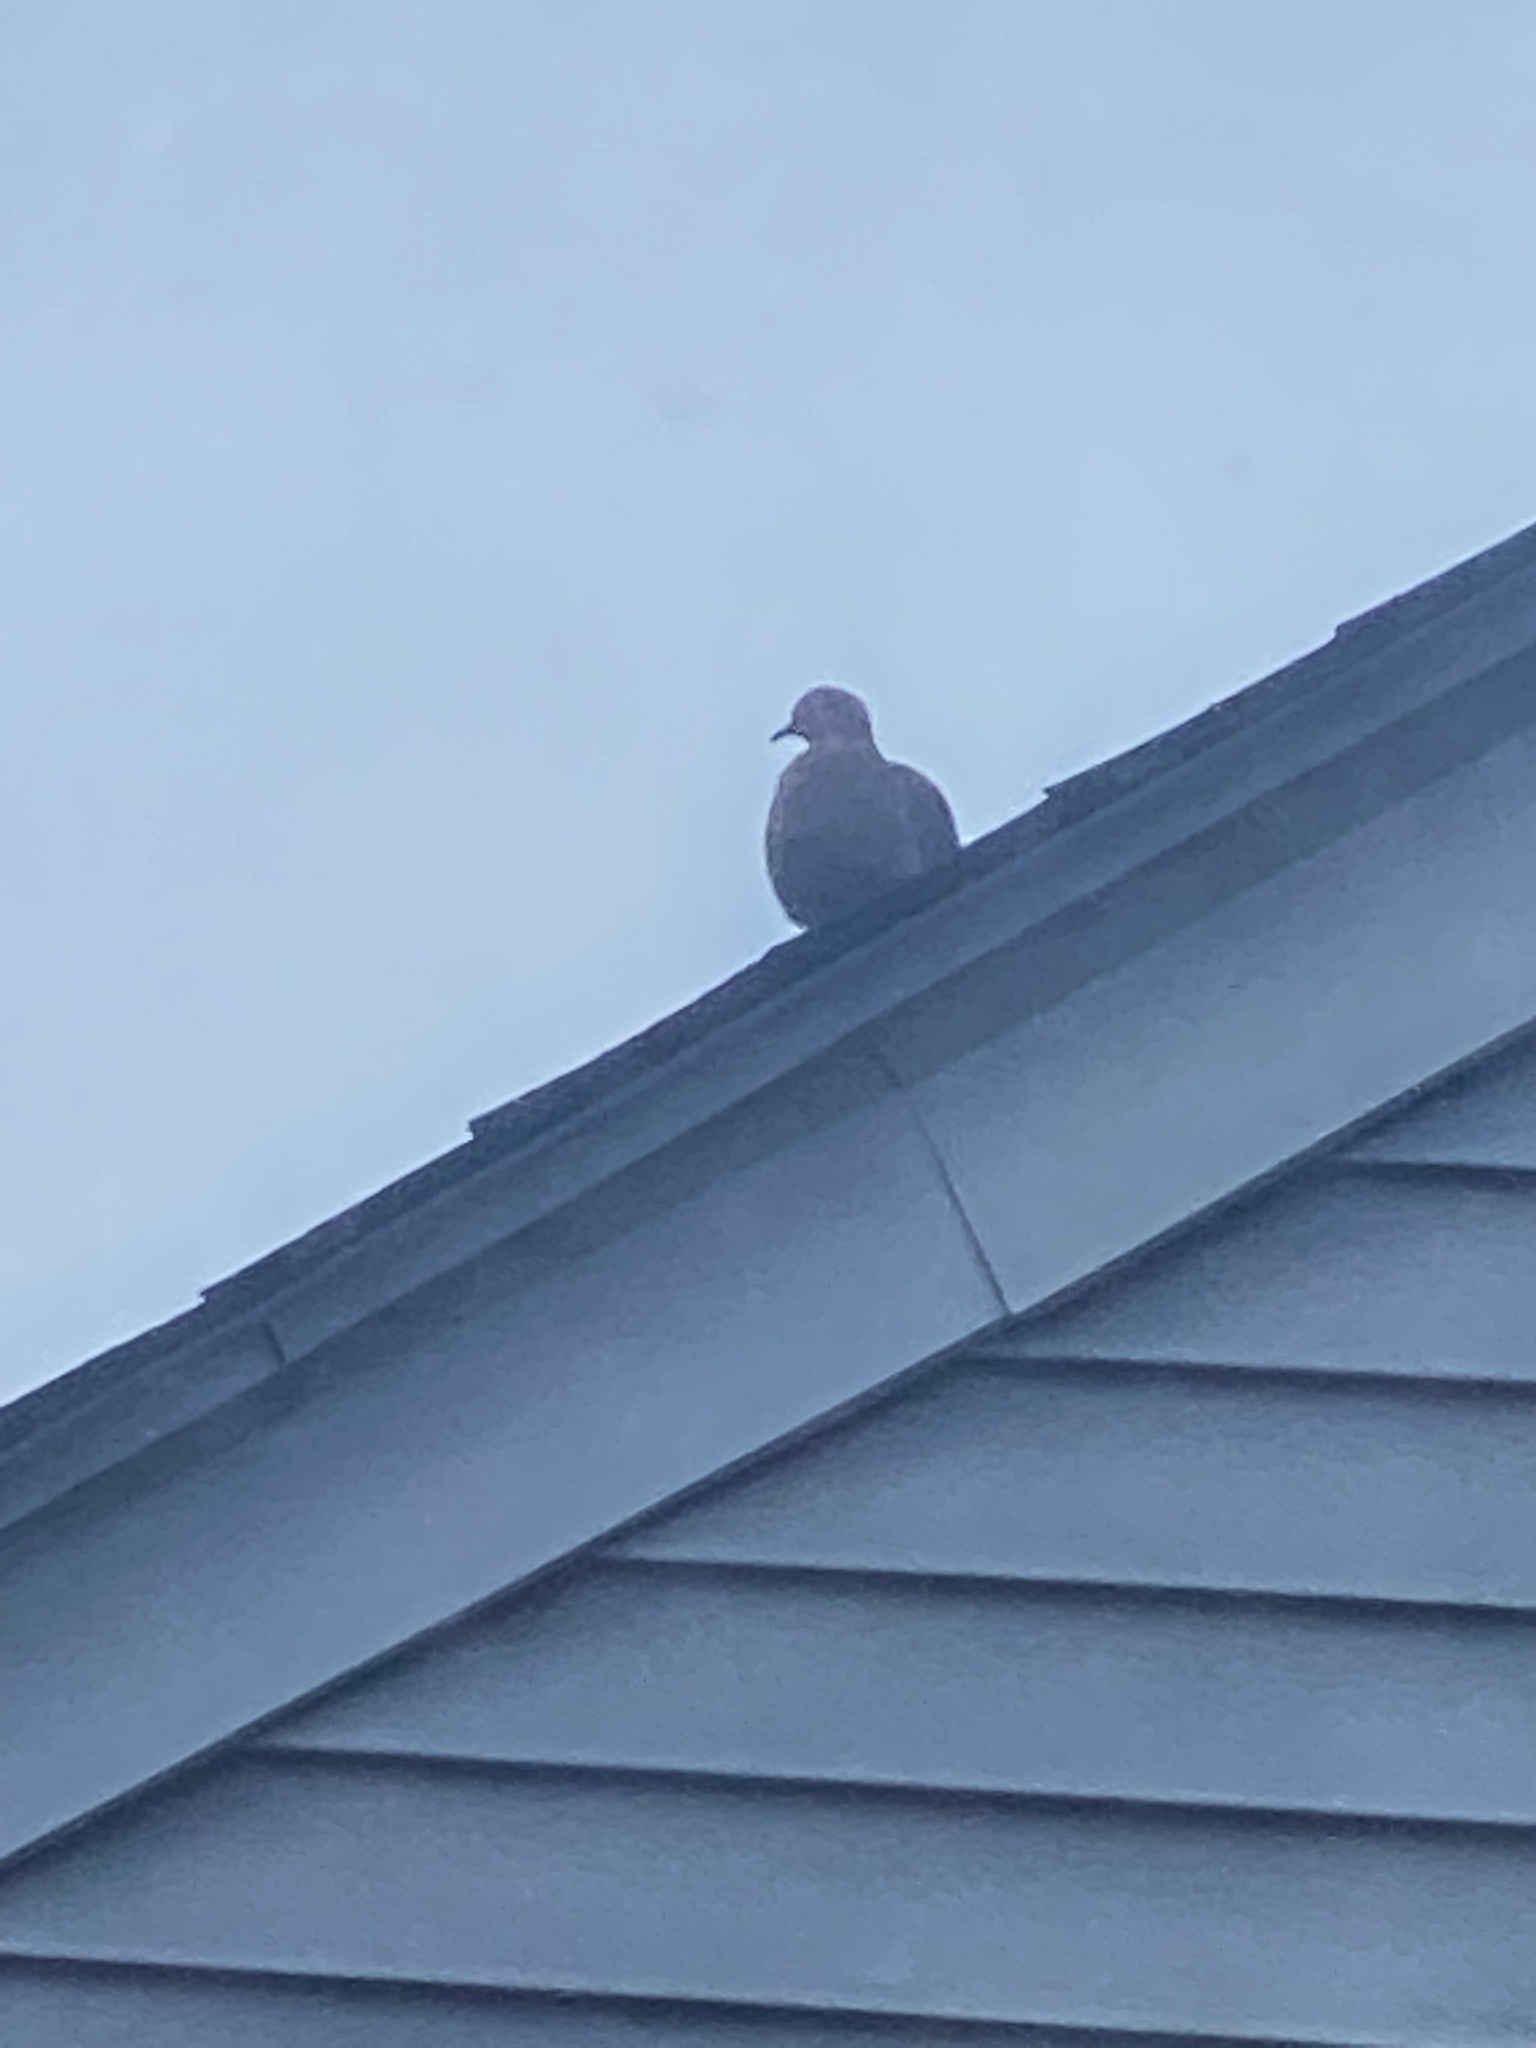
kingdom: Animalia
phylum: Chordata
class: Aves
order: Columbiformes
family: Columbidae
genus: Zenaida
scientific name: Zenaida macroura
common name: Mourning dove
